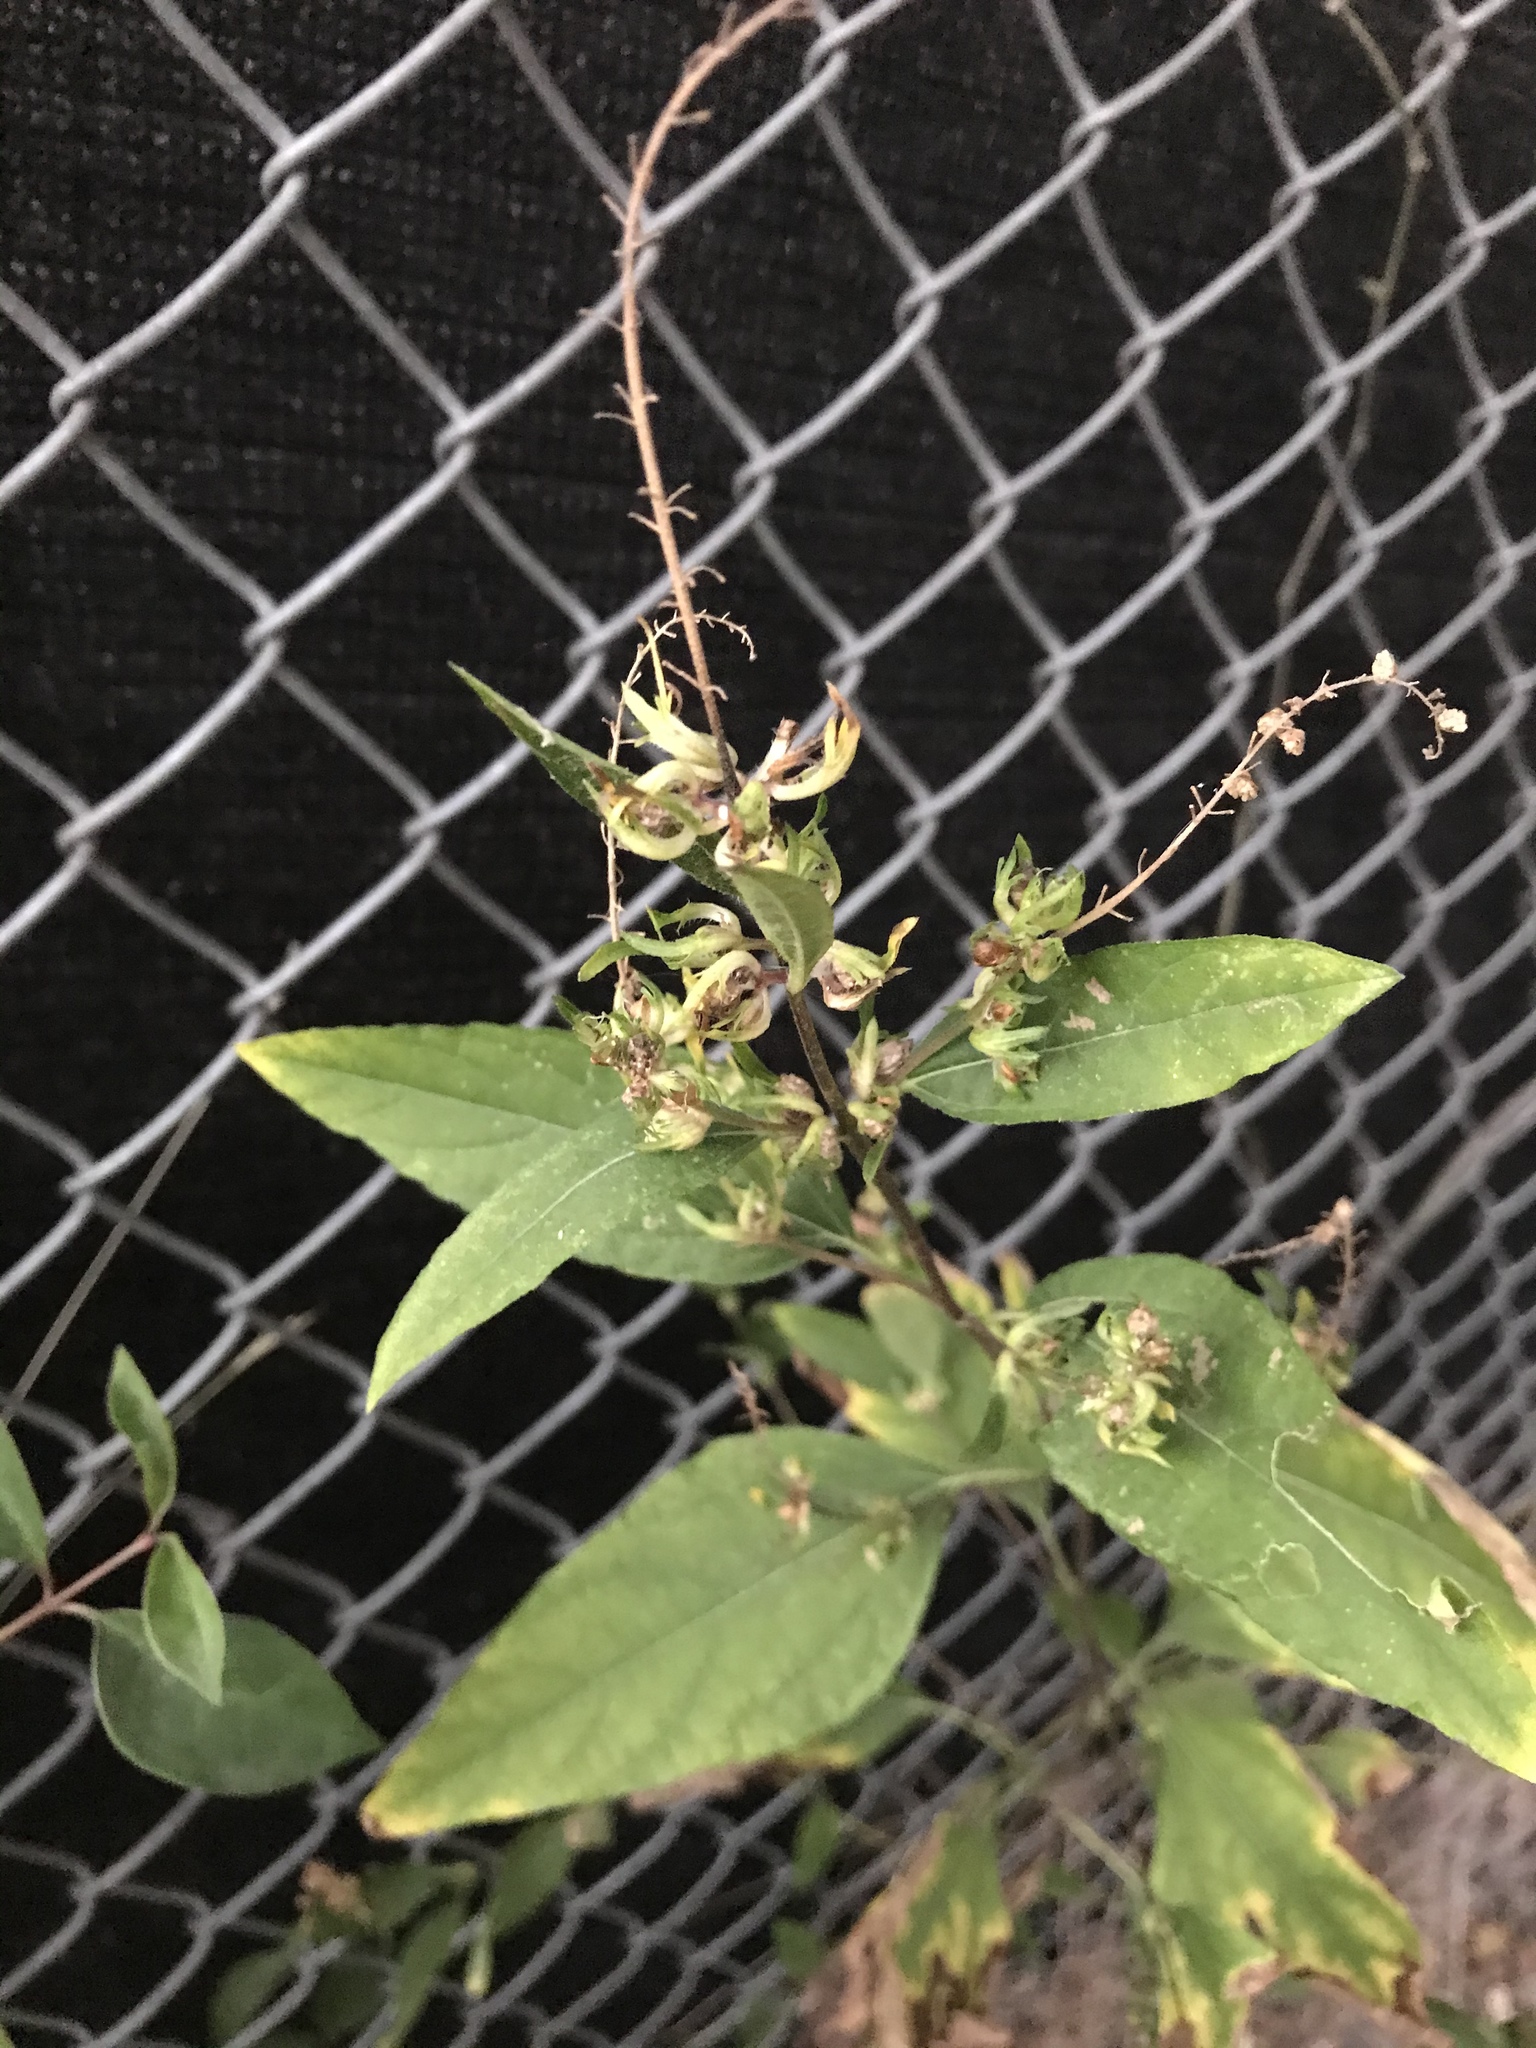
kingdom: Plantae
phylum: Tracheophyta
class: Magnoliopsida
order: Asterales
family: Asteraceae
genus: Ambrosia
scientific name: Ambrosia trifida
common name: Giant ragweed
